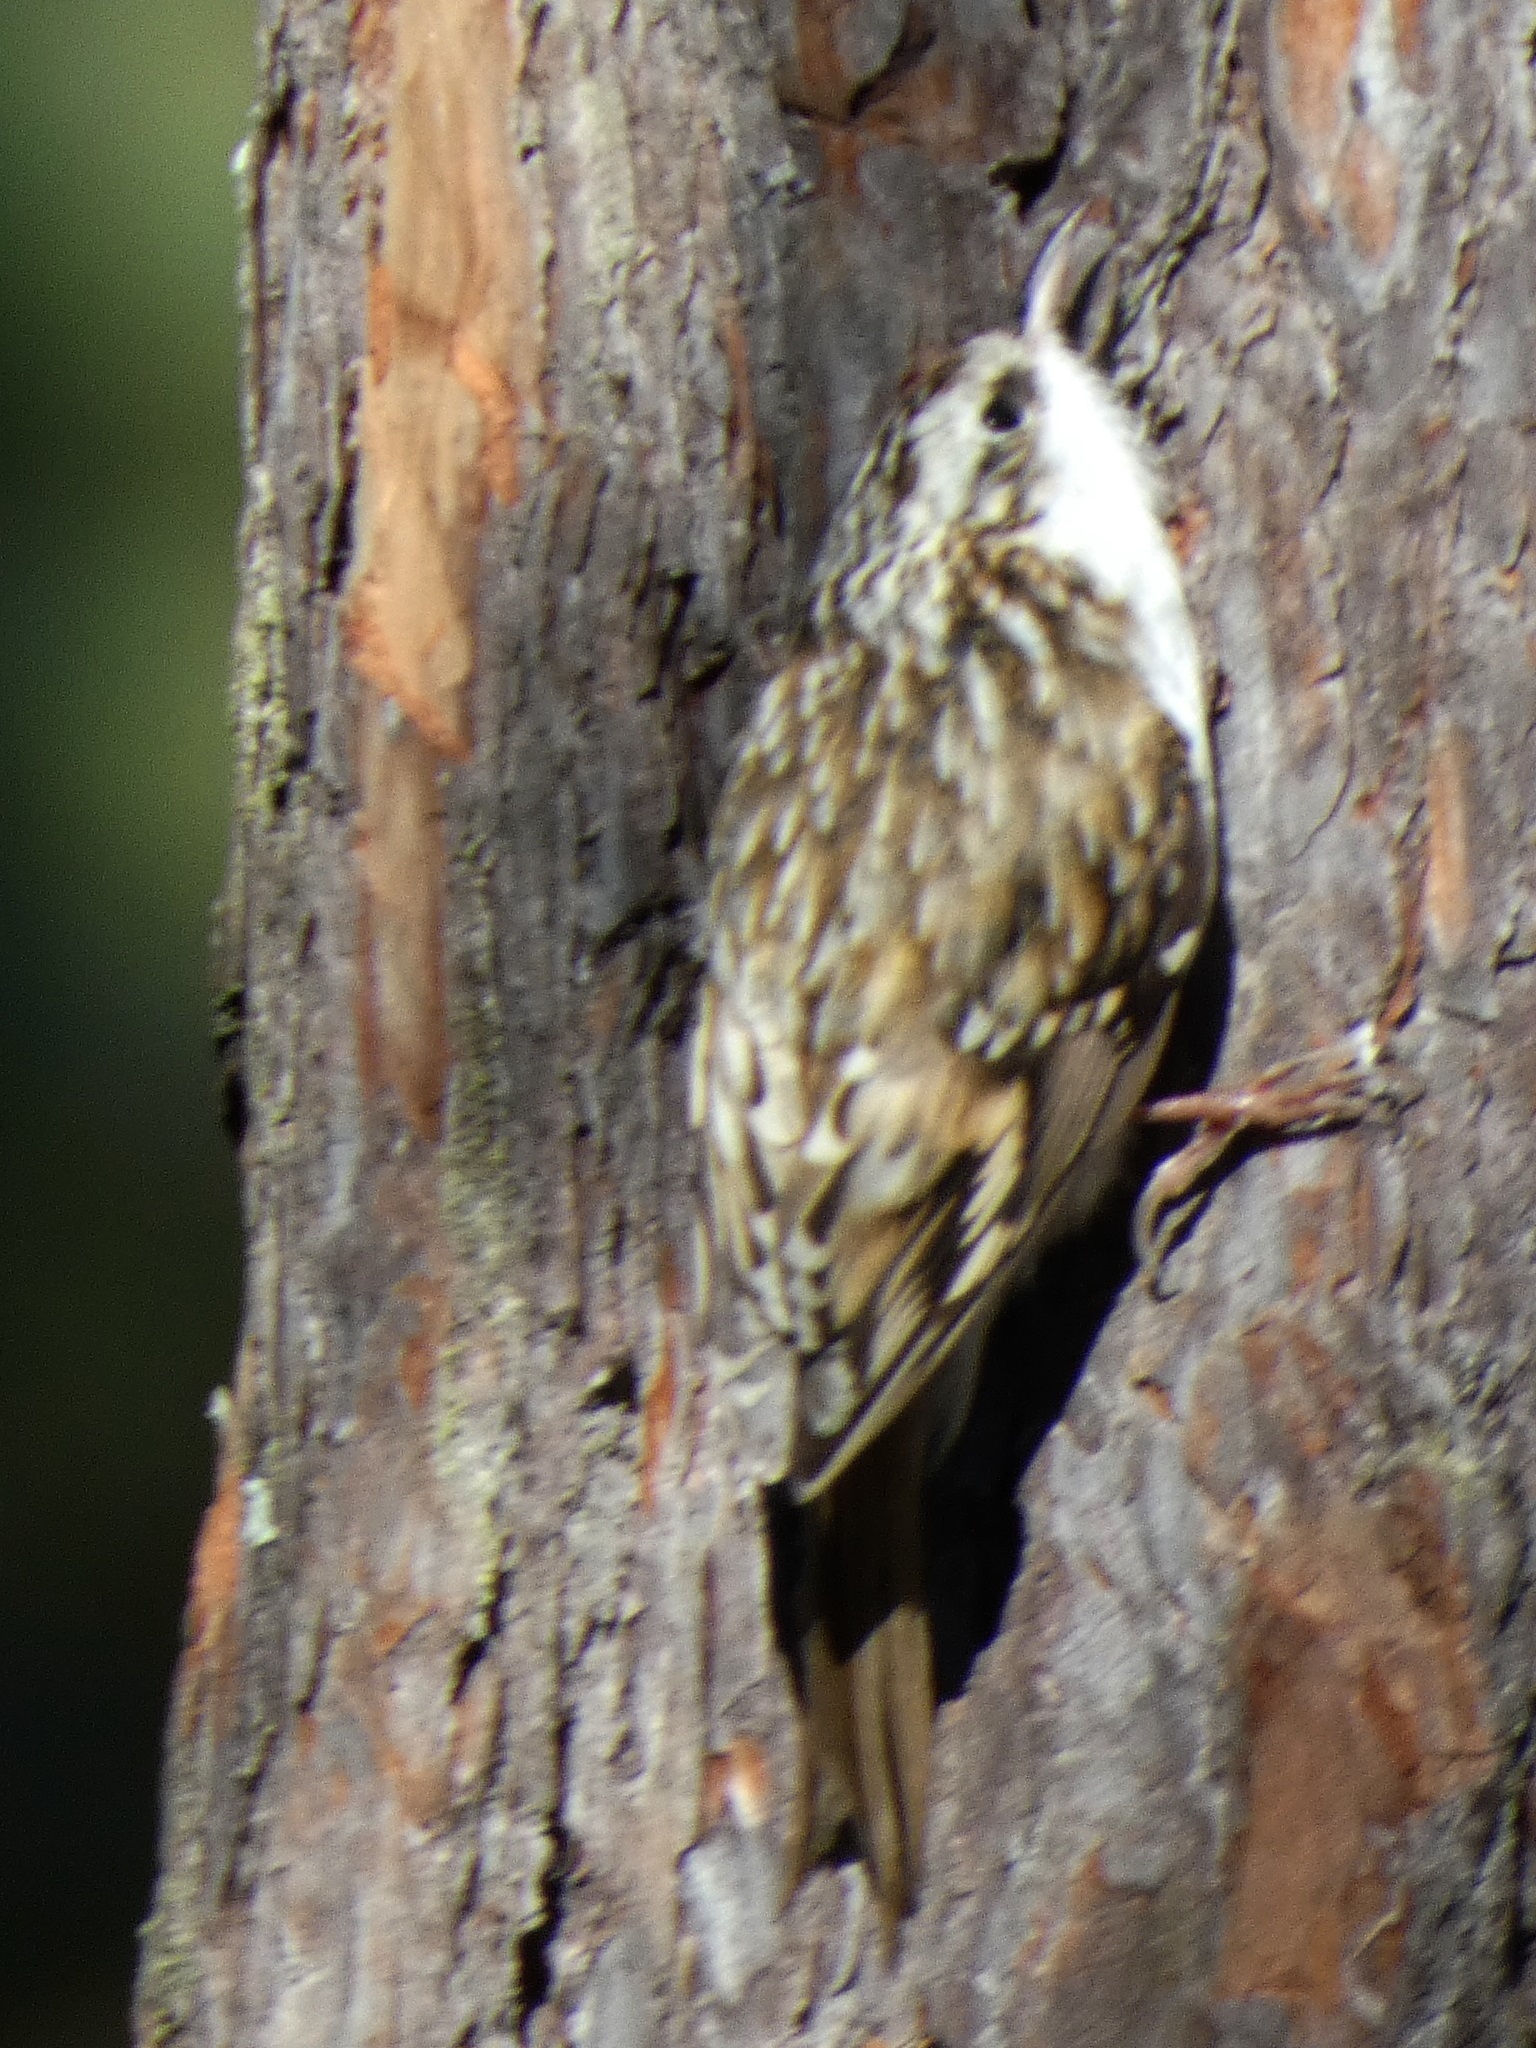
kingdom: Animalia
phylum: Chordata
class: Aves
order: Passeriformes
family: Certhiidae
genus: Certhia
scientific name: Certhia familiaris
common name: Eurasian treecreeper
